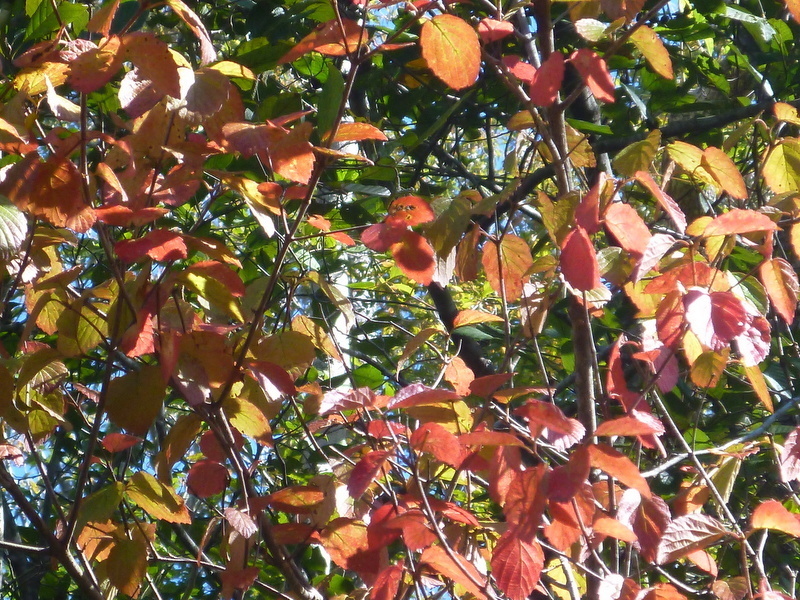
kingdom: Plantae
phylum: Tracheophyta
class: Magnoliopsida
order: Dipsacales
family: Viburnaceae
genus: Viburnum
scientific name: Viburnum scabrellum
